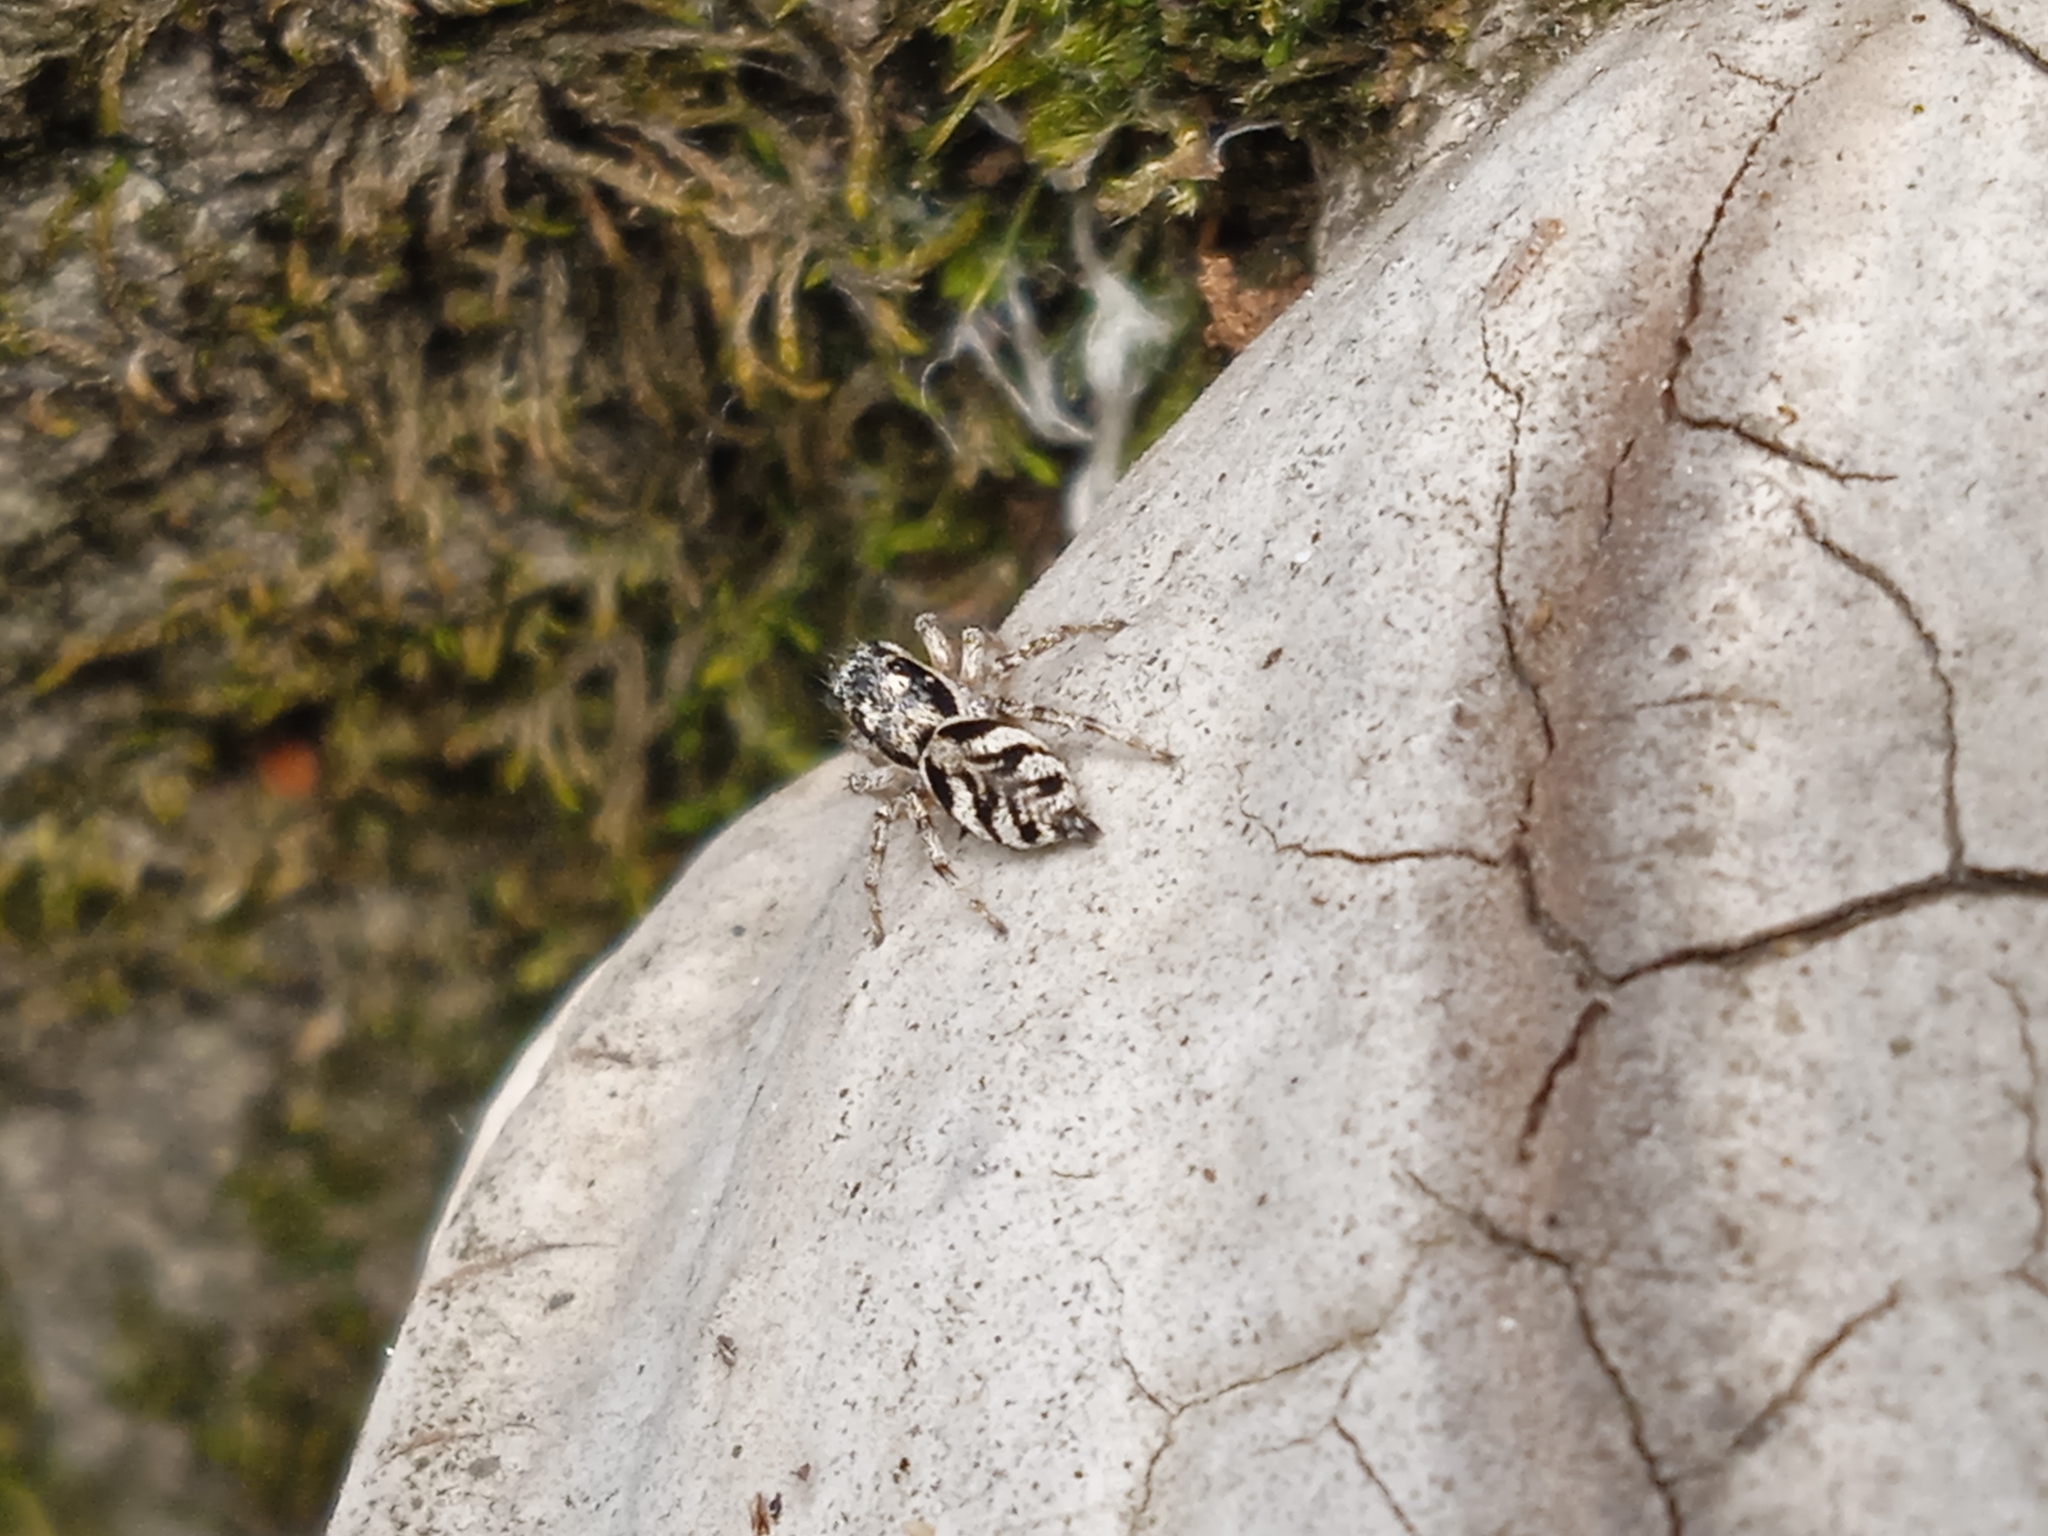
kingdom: Animalia
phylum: Arthropoda
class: Arachnida
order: Araneae
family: Salticidae
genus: Salticus
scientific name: Salticus cingulatus
